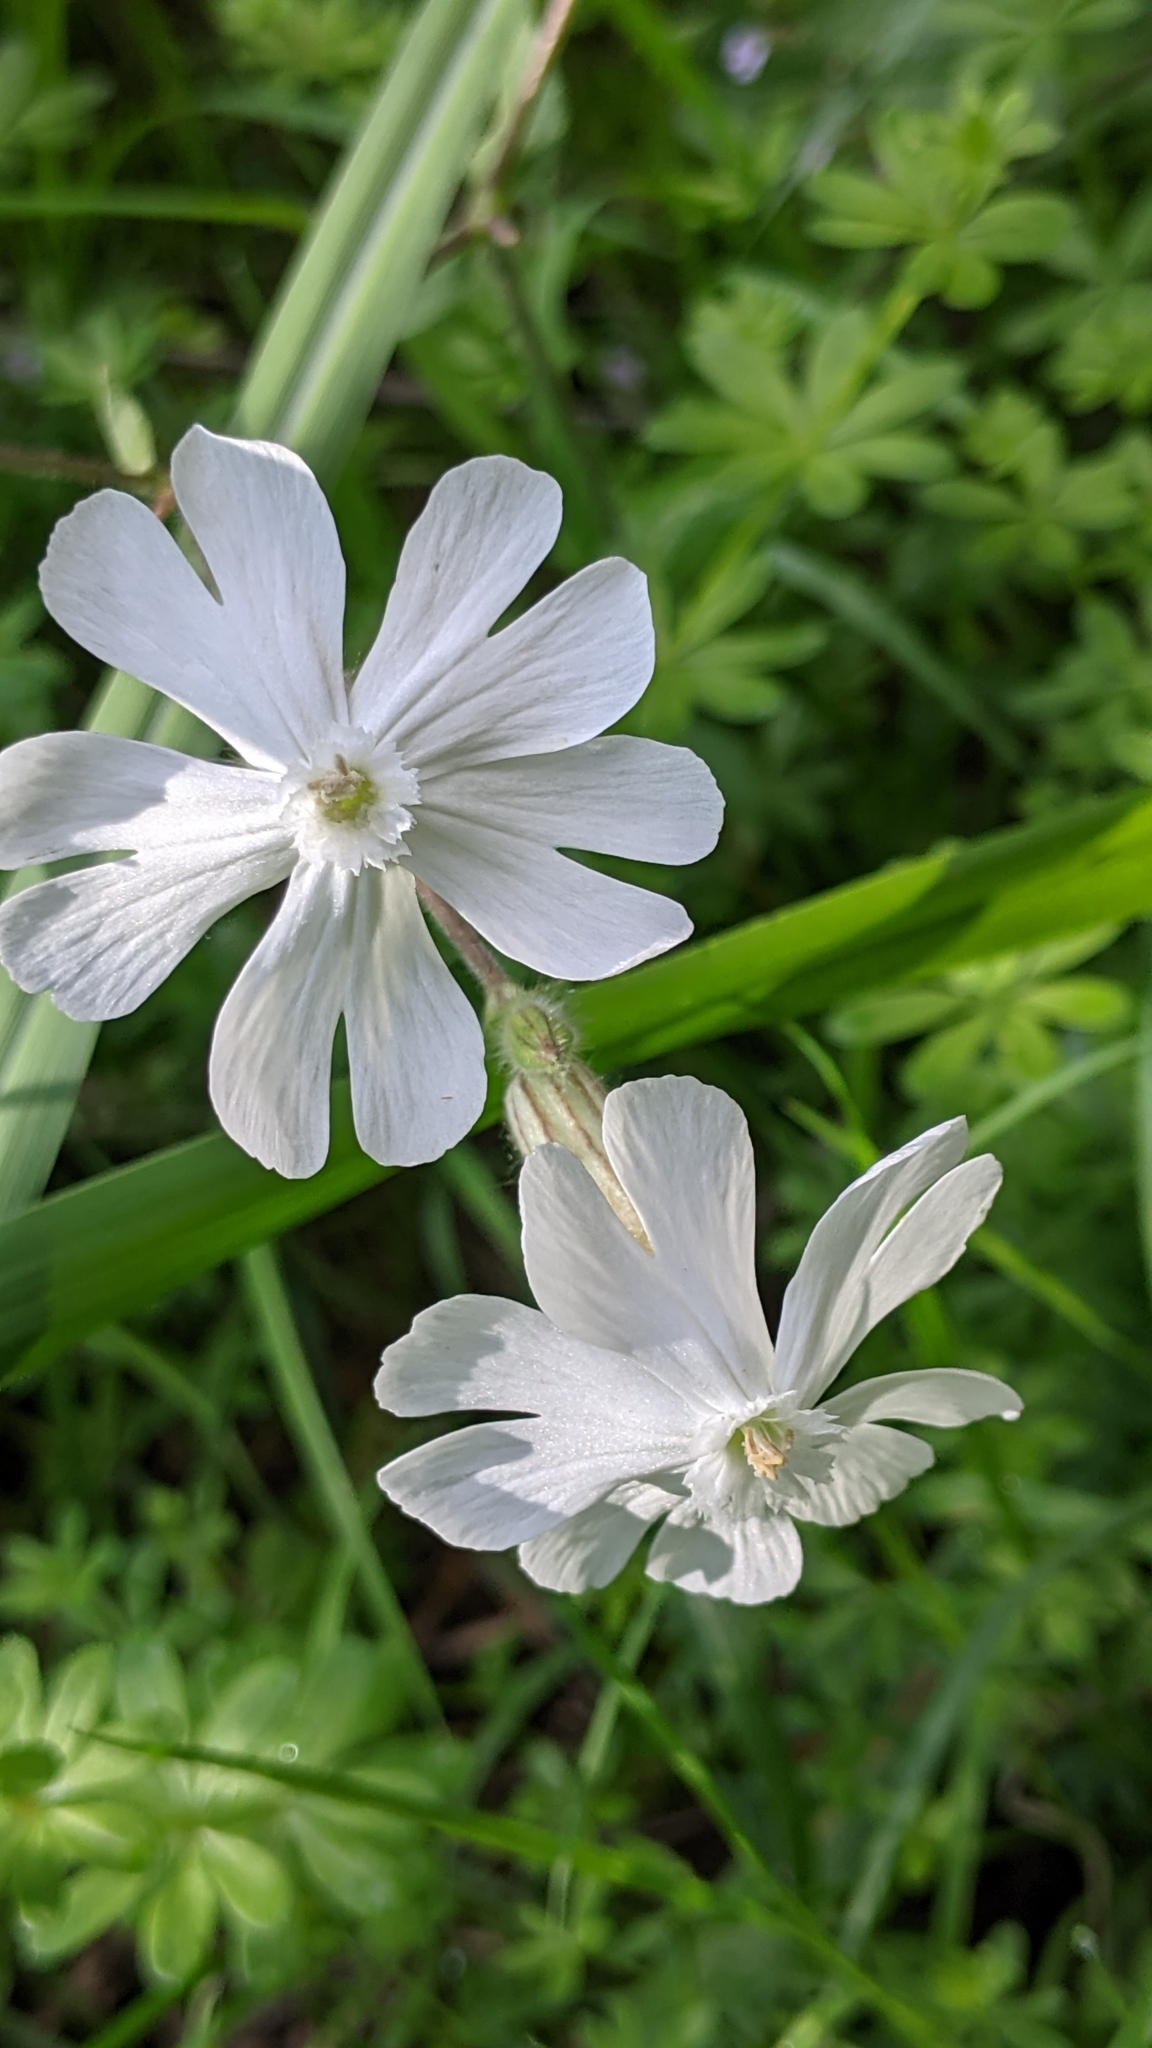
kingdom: Plantae
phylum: Tracheophyta
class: Magnoliopsida
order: Caryophyllales
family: Caryophyllaceae
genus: Silene
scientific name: Silene latifolia
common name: White campion
